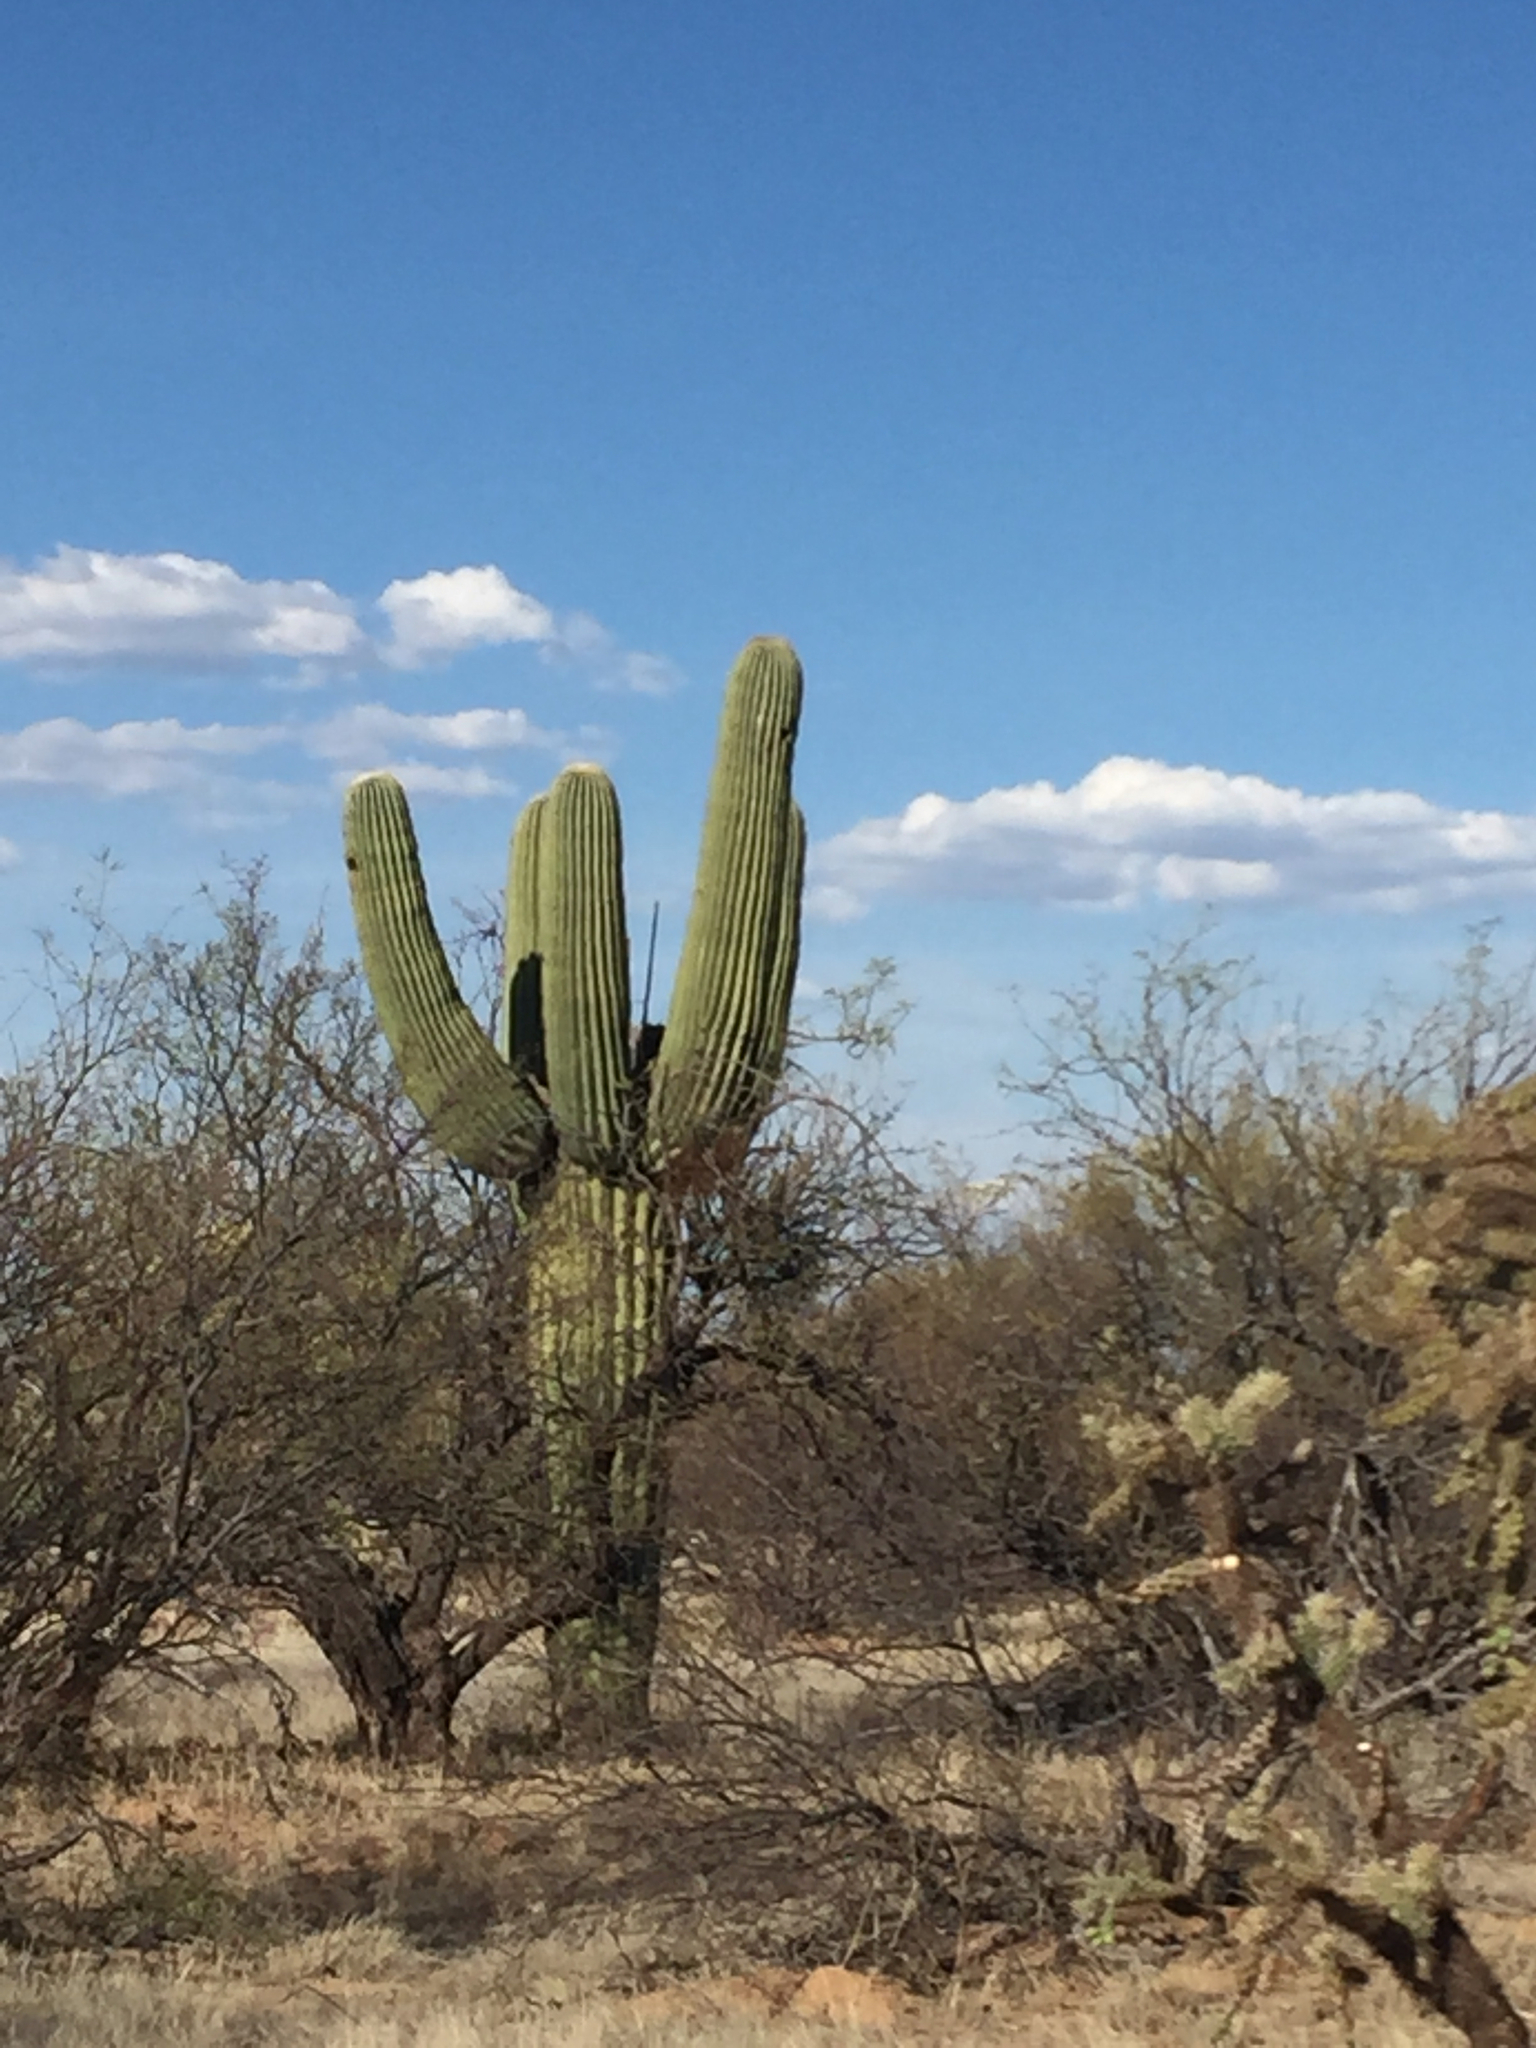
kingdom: Plantae
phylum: Tracheophyta
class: Magnoliopsida
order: Caryophyllales
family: Cactaceae
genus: Carnegiea
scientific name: Carnegiea gigantea
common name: Saguaro
